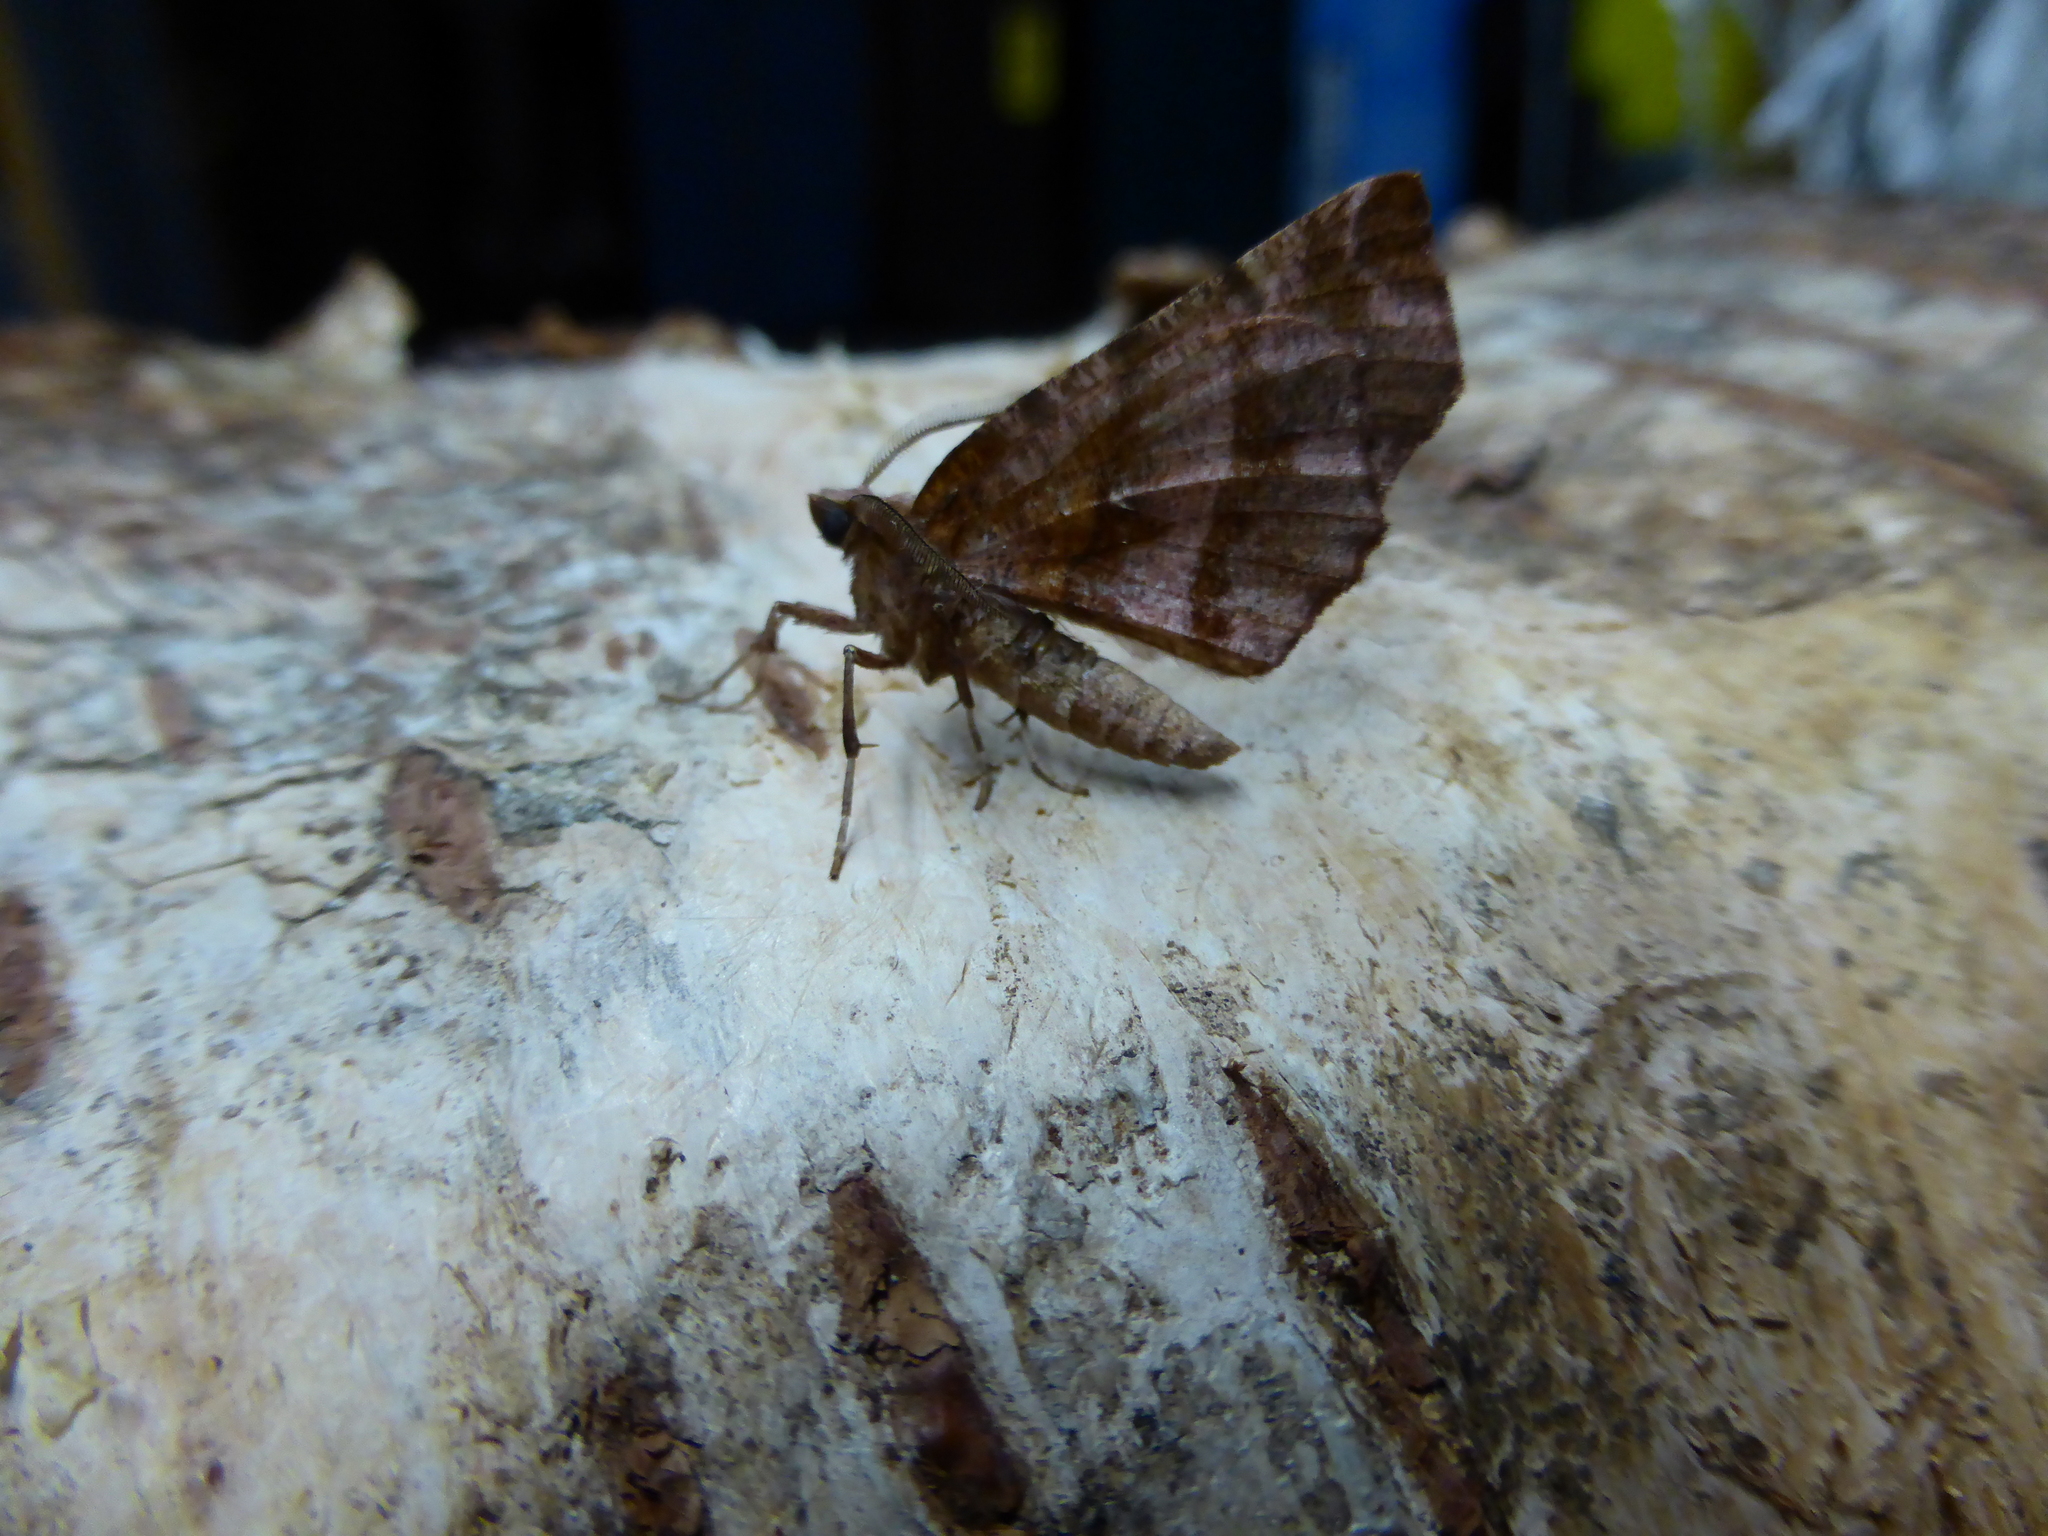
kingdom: Animalia
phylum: Arthropoda
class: Insecta
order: Lepidoptera
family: Geometridae
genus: Selenia
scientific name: Selenia dentaria
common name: Early thorn
